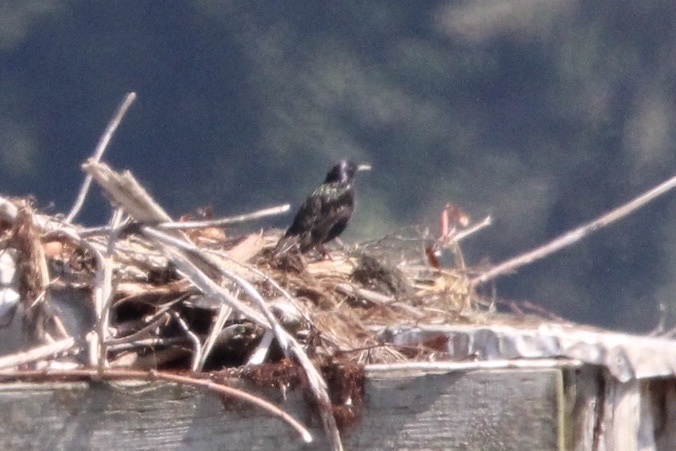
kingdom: Animalia
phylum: Chordata
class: Aves
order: Passeriformes
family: Sturnidae
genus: Sturnus
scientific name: Sturnus vulgaris
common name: Common starling
